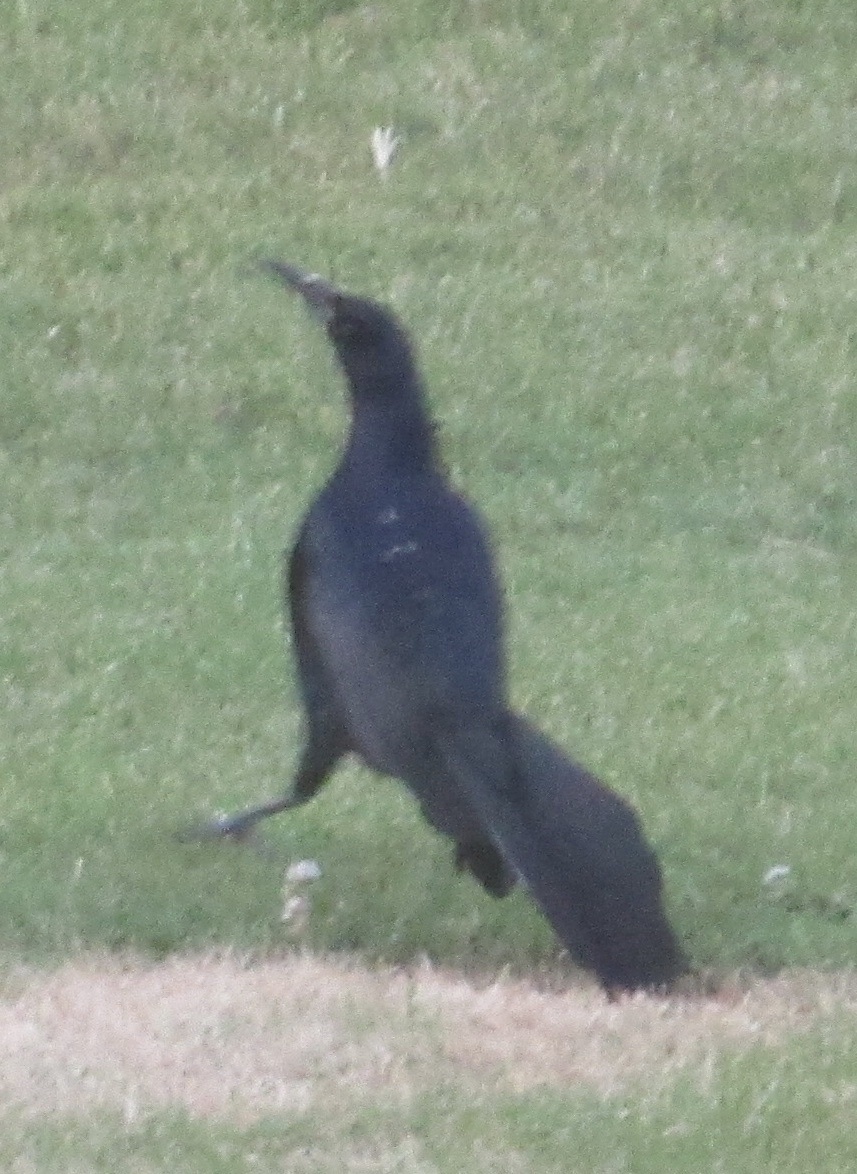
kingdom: Animalia
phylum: Chordata
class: Aves
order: Passeriformes
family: Icteridae
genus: Quiscalus
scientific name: Quiscalus mexicanus
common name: Great-tailed grackle
